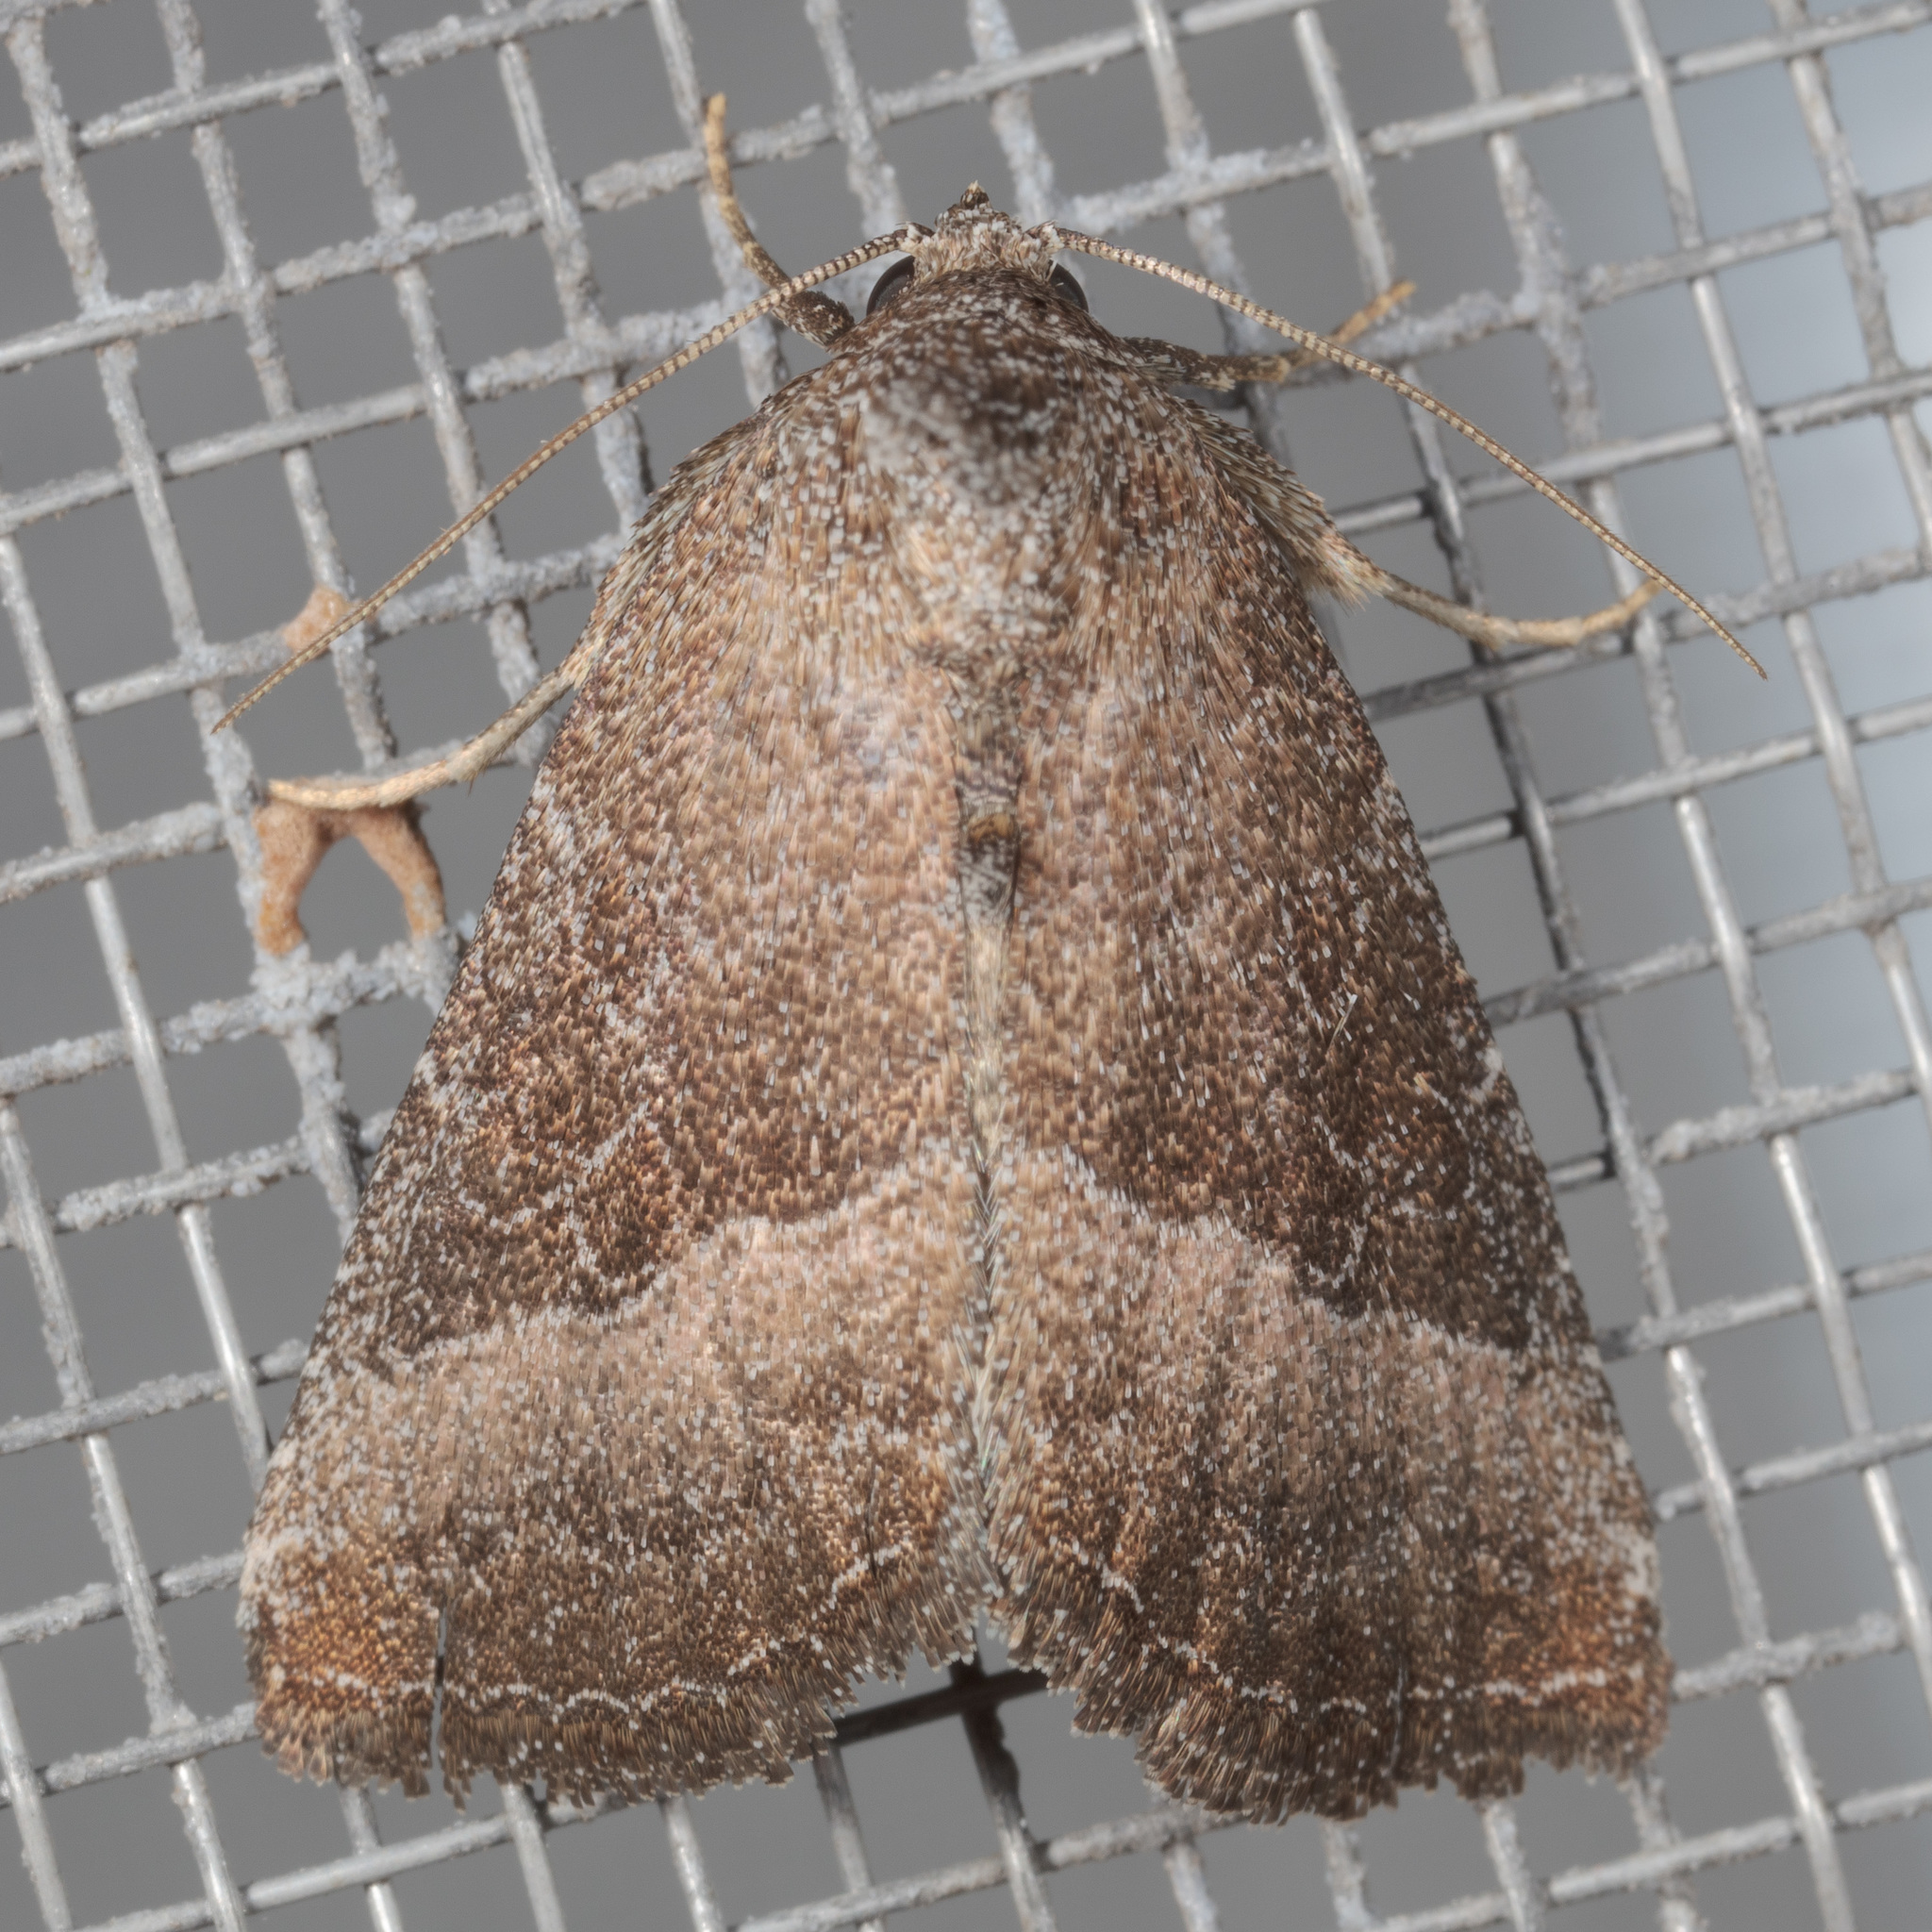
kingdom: Animalia
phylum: Arthropoda
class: Insecta
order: Lepidoptera
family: Noctuidae
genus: Ogdoconta
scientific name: Ogdoconta cinereola
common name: Common pinkband
